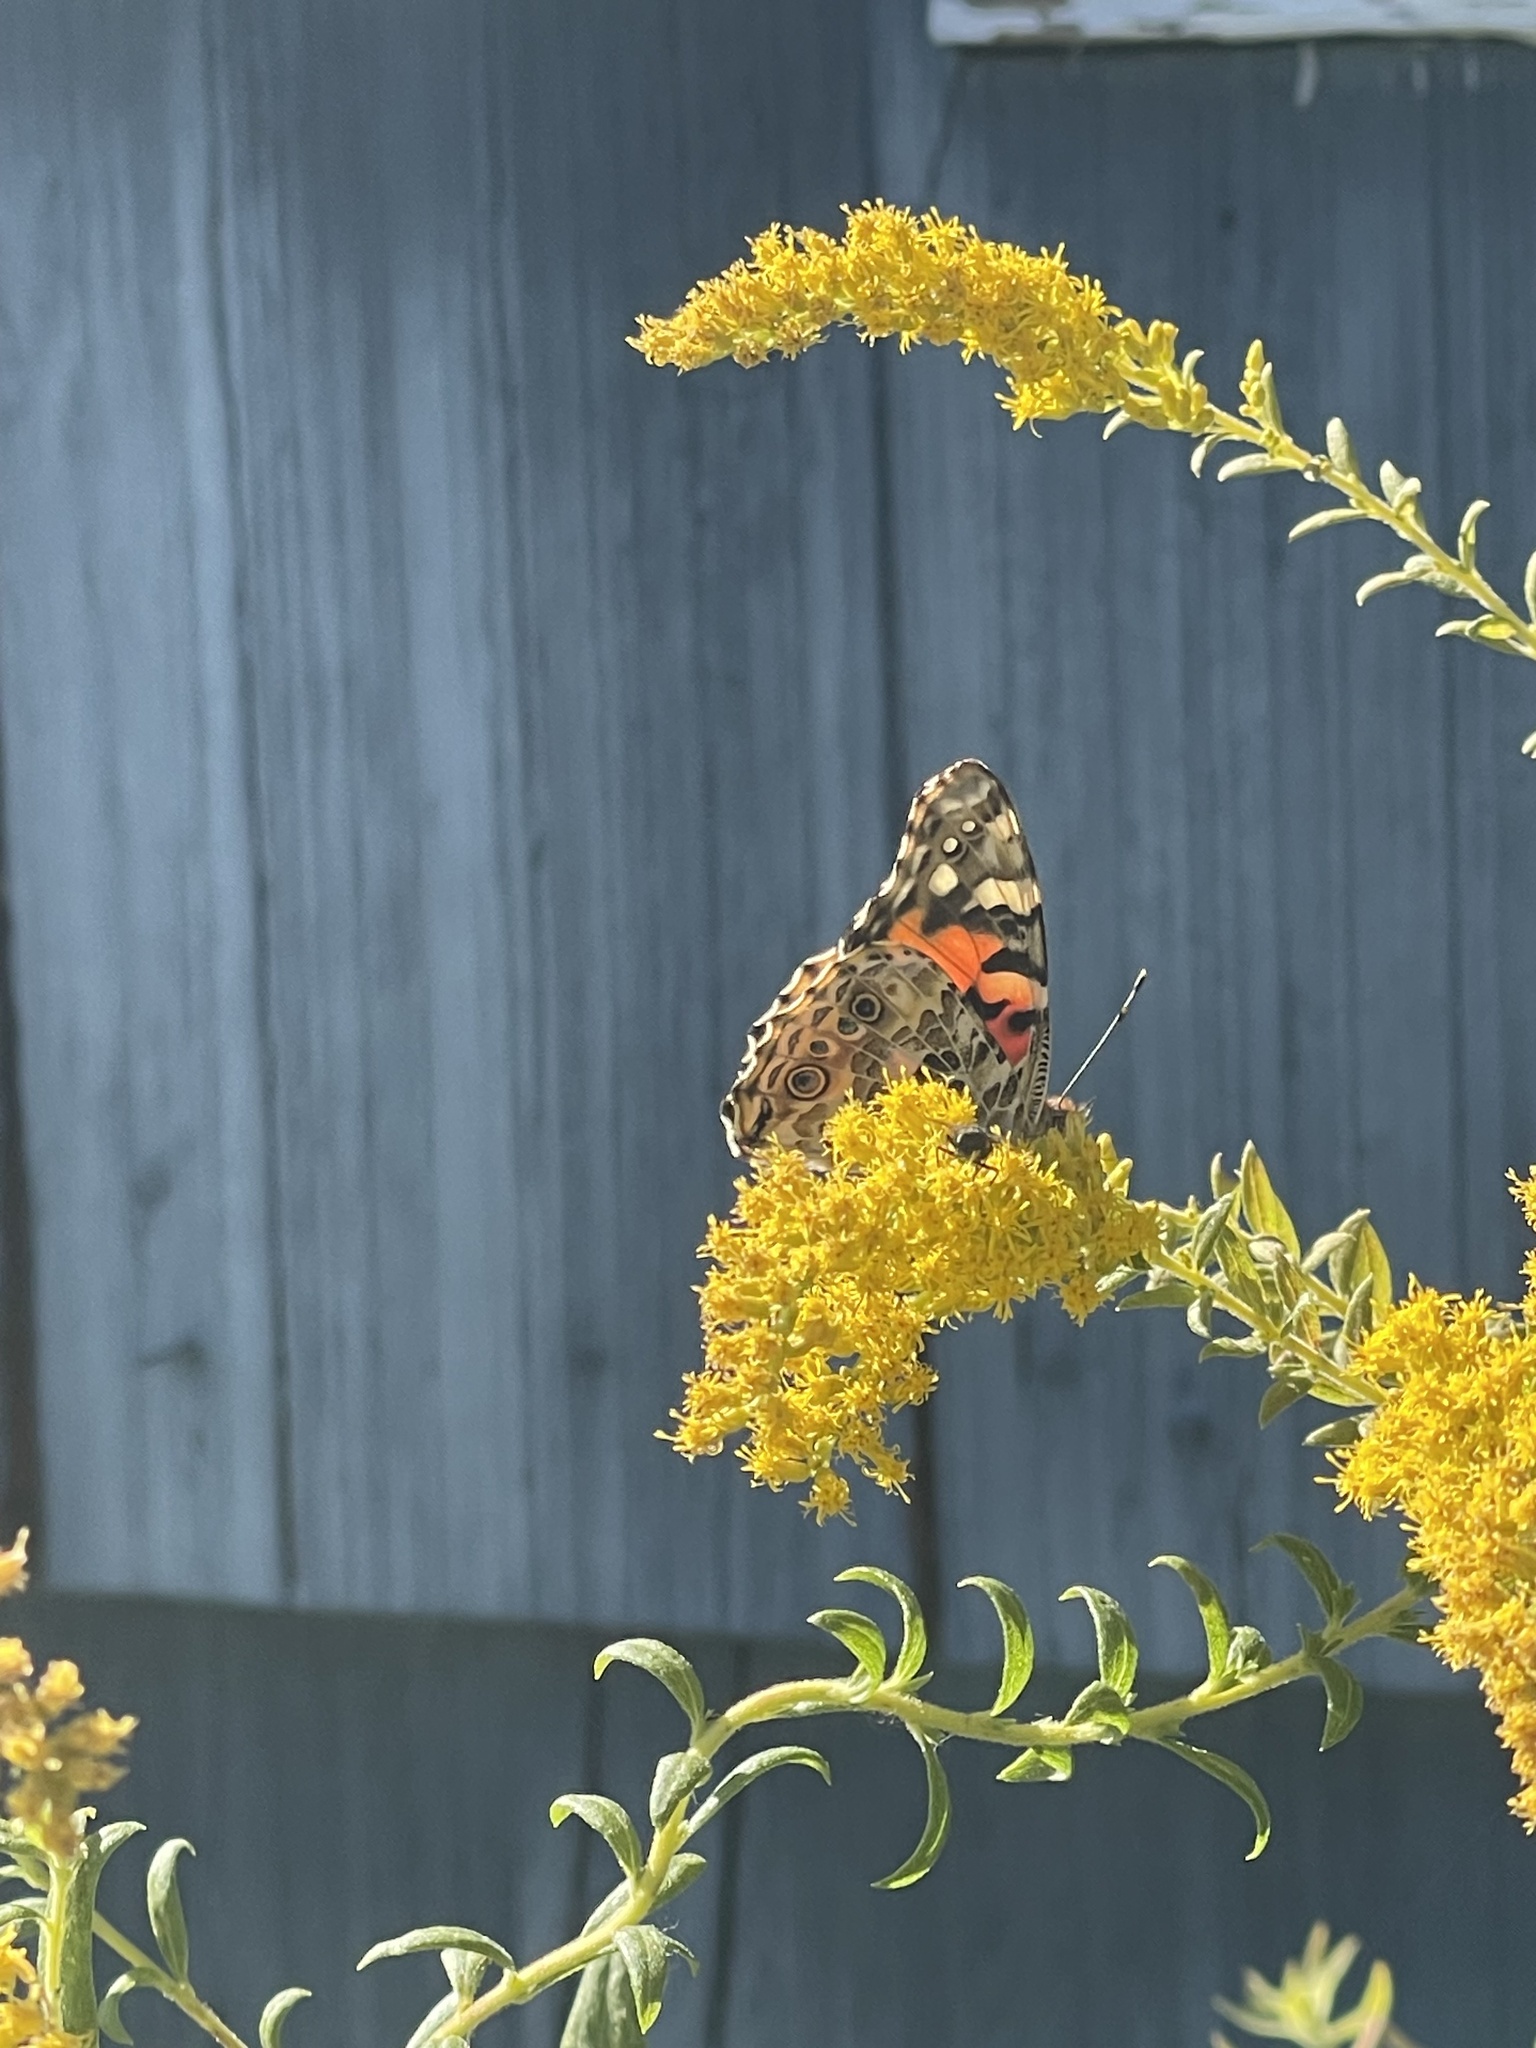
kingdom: Animalia
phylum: Arthropoda
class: Insecta
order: Lepidoptera
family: Nymphalidae
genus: Vanessa
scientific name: Vanessa cardui
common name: Painted lady
